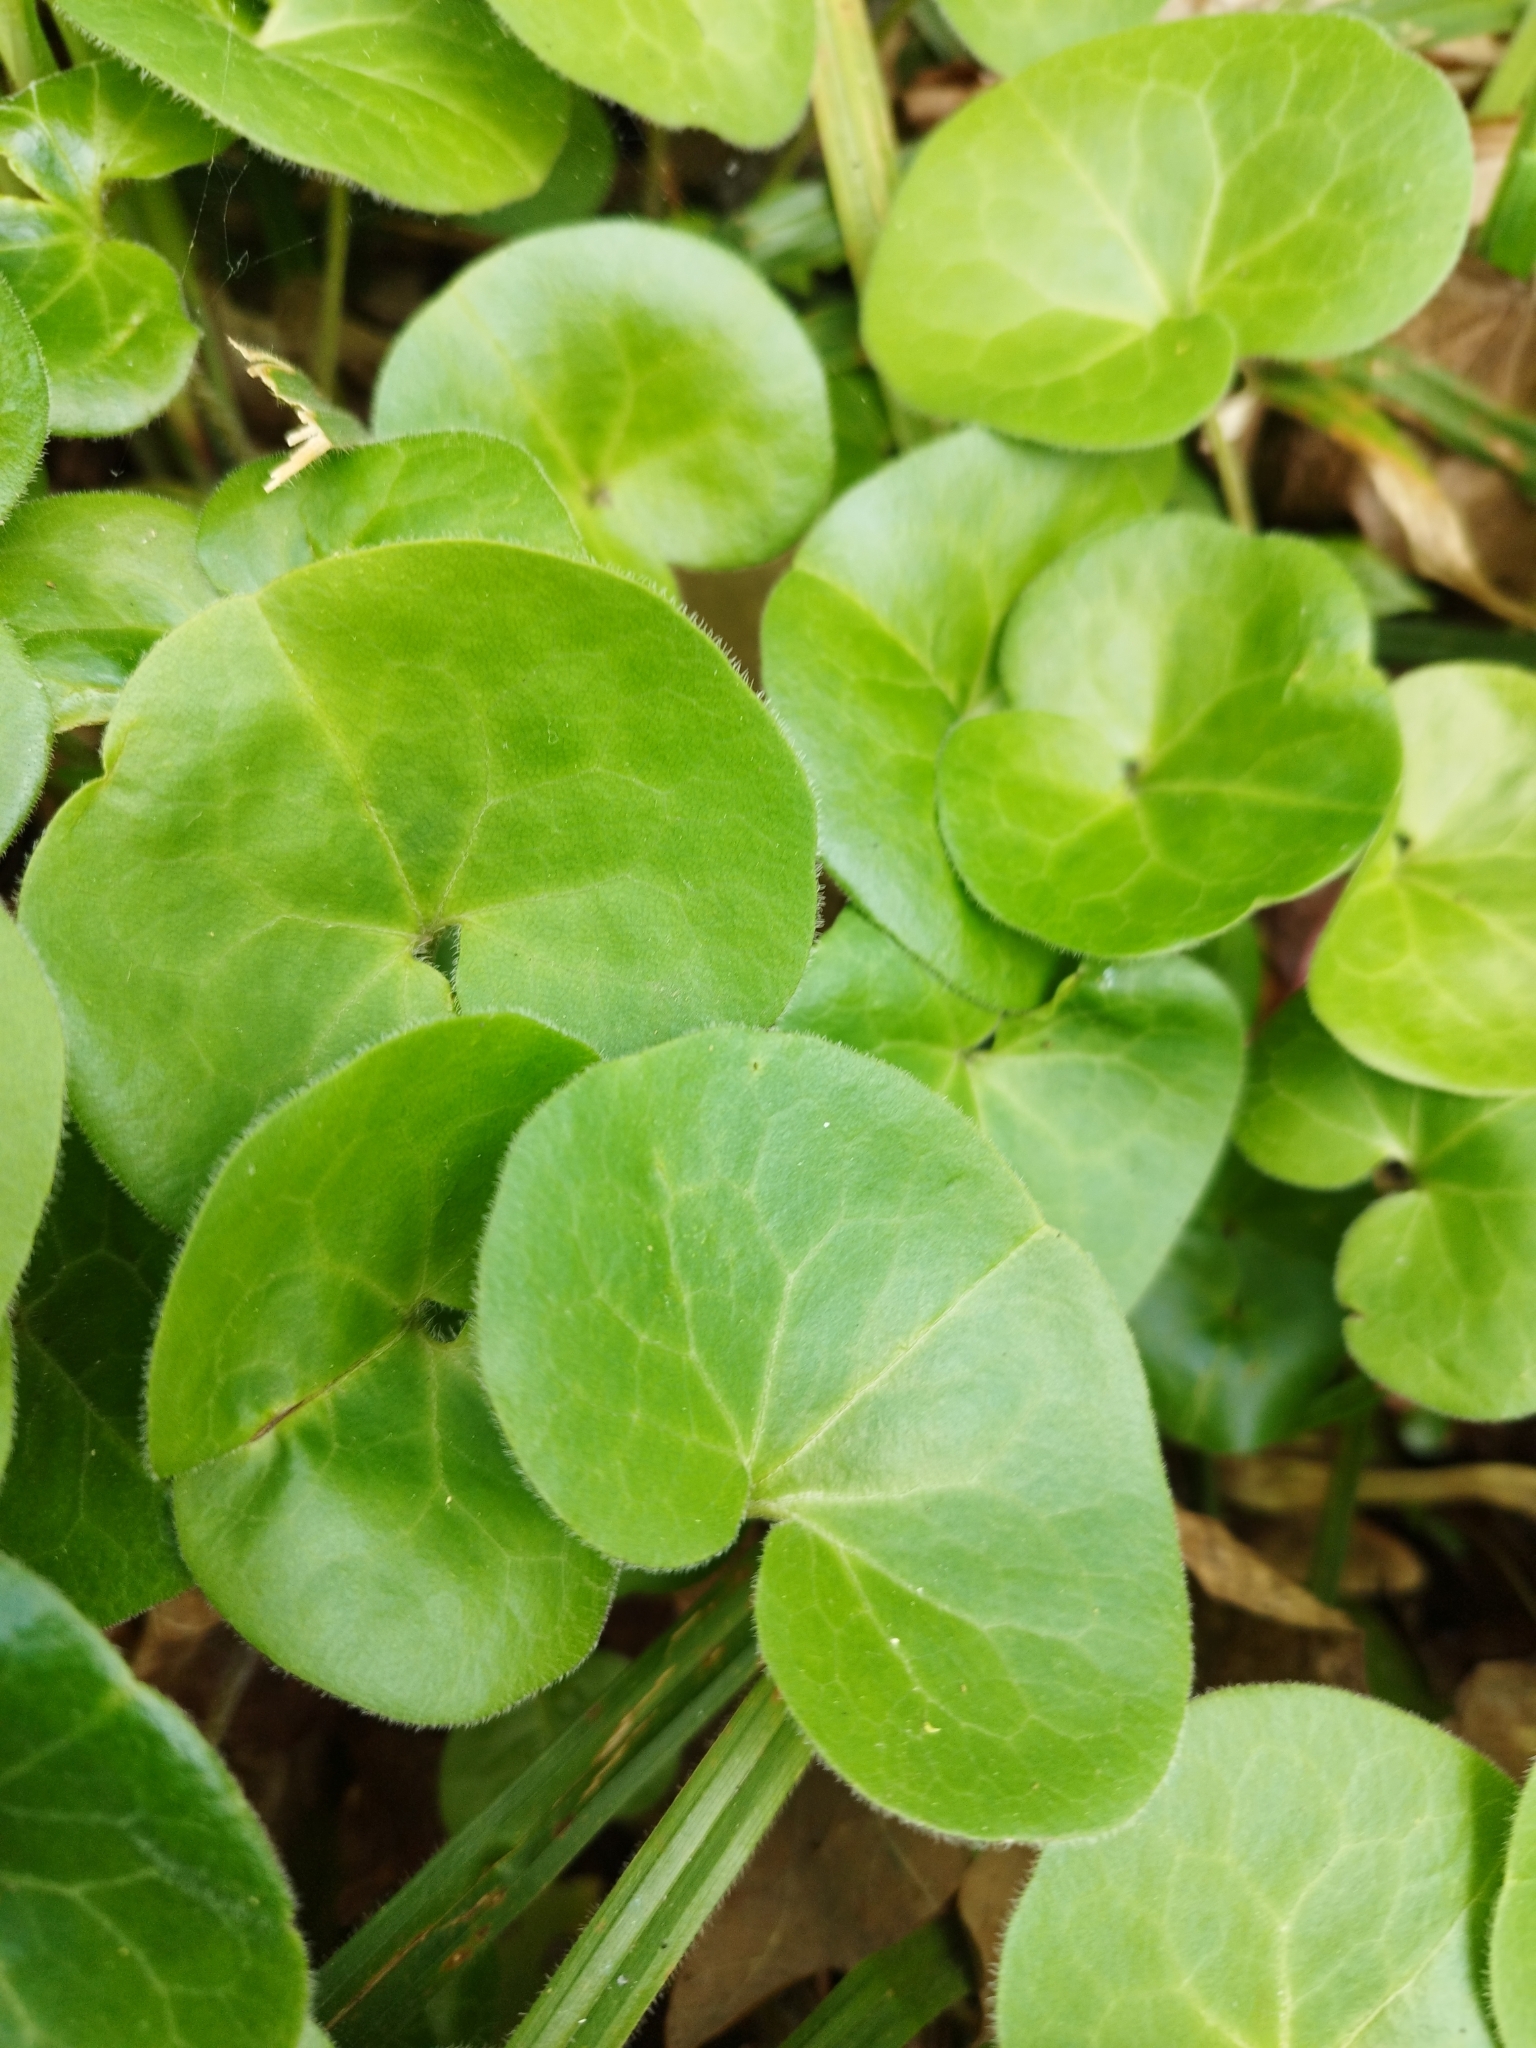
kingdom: Plantae
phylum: Tracheophyta
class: Magnoliopsida
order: Piperales
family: Aristolochiaceae
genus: Asarum
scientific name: Asarum europaeum
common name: Asarabacca
